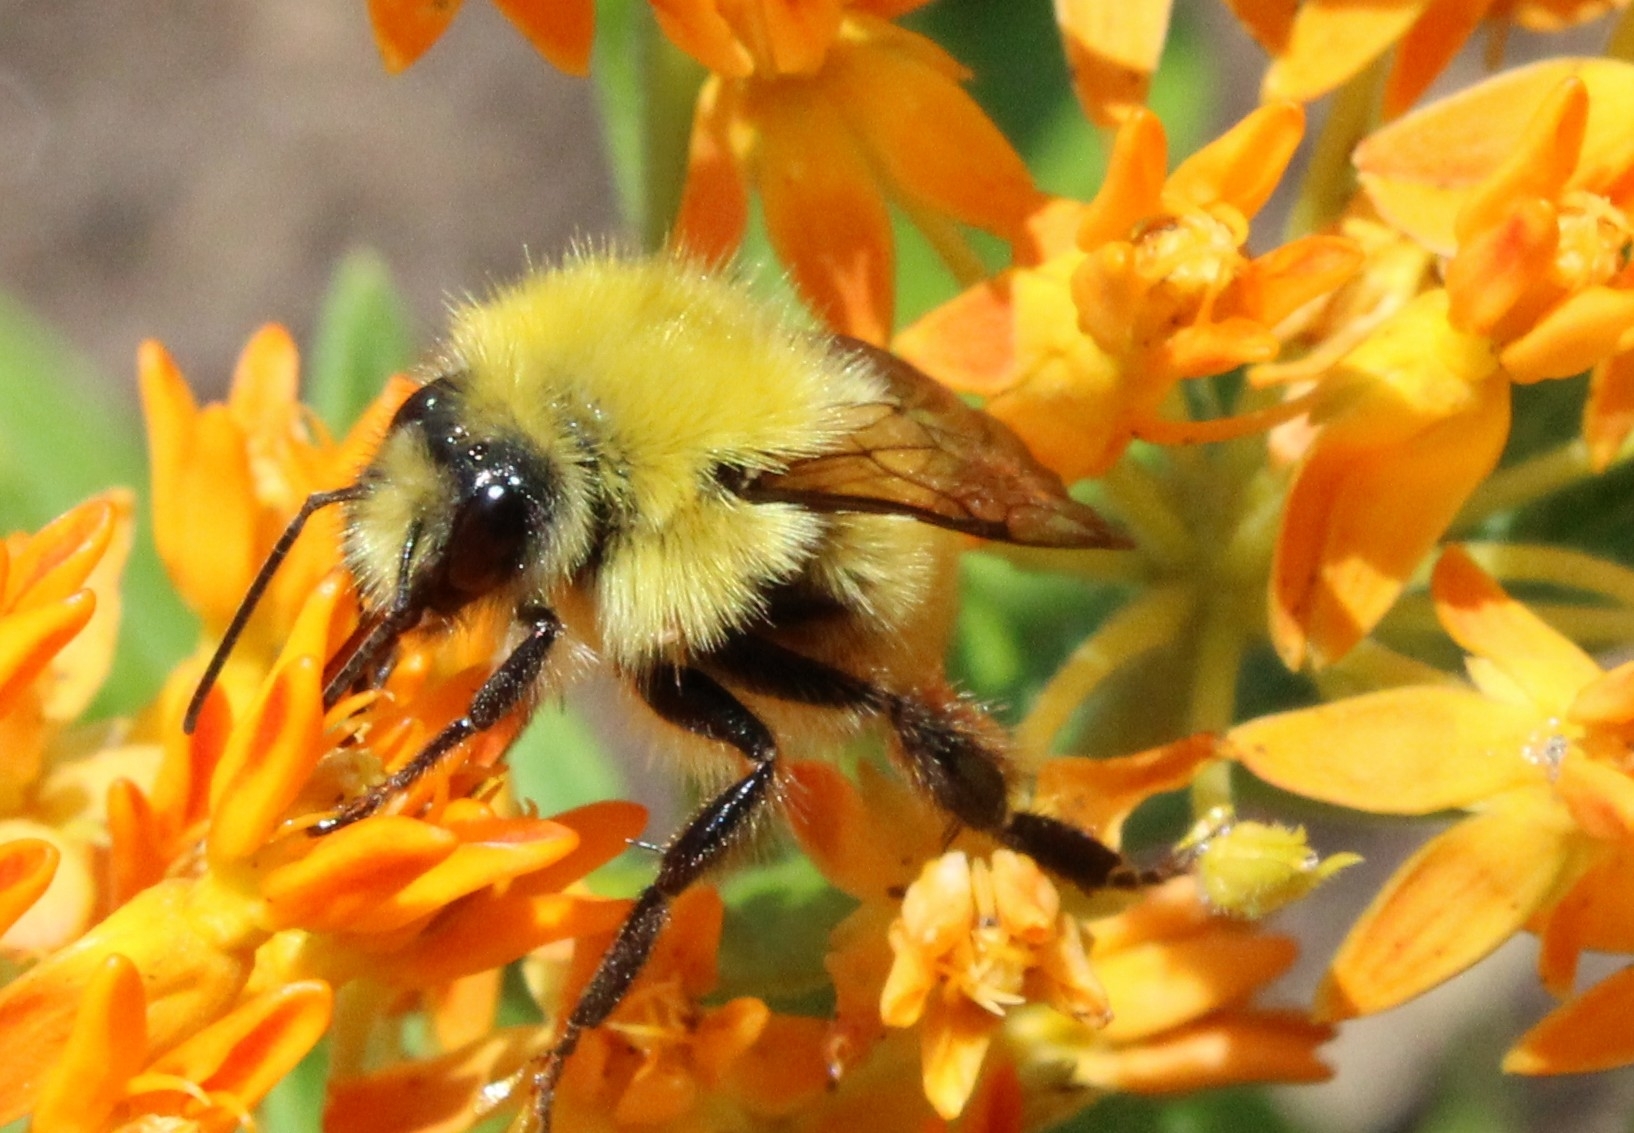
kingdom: Animalia
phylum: Arthropoda
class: Insecta
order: Hymenoptera
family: Apidae
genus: Bombus
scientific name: Bombus perplexus
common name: Confusing bumble bee
